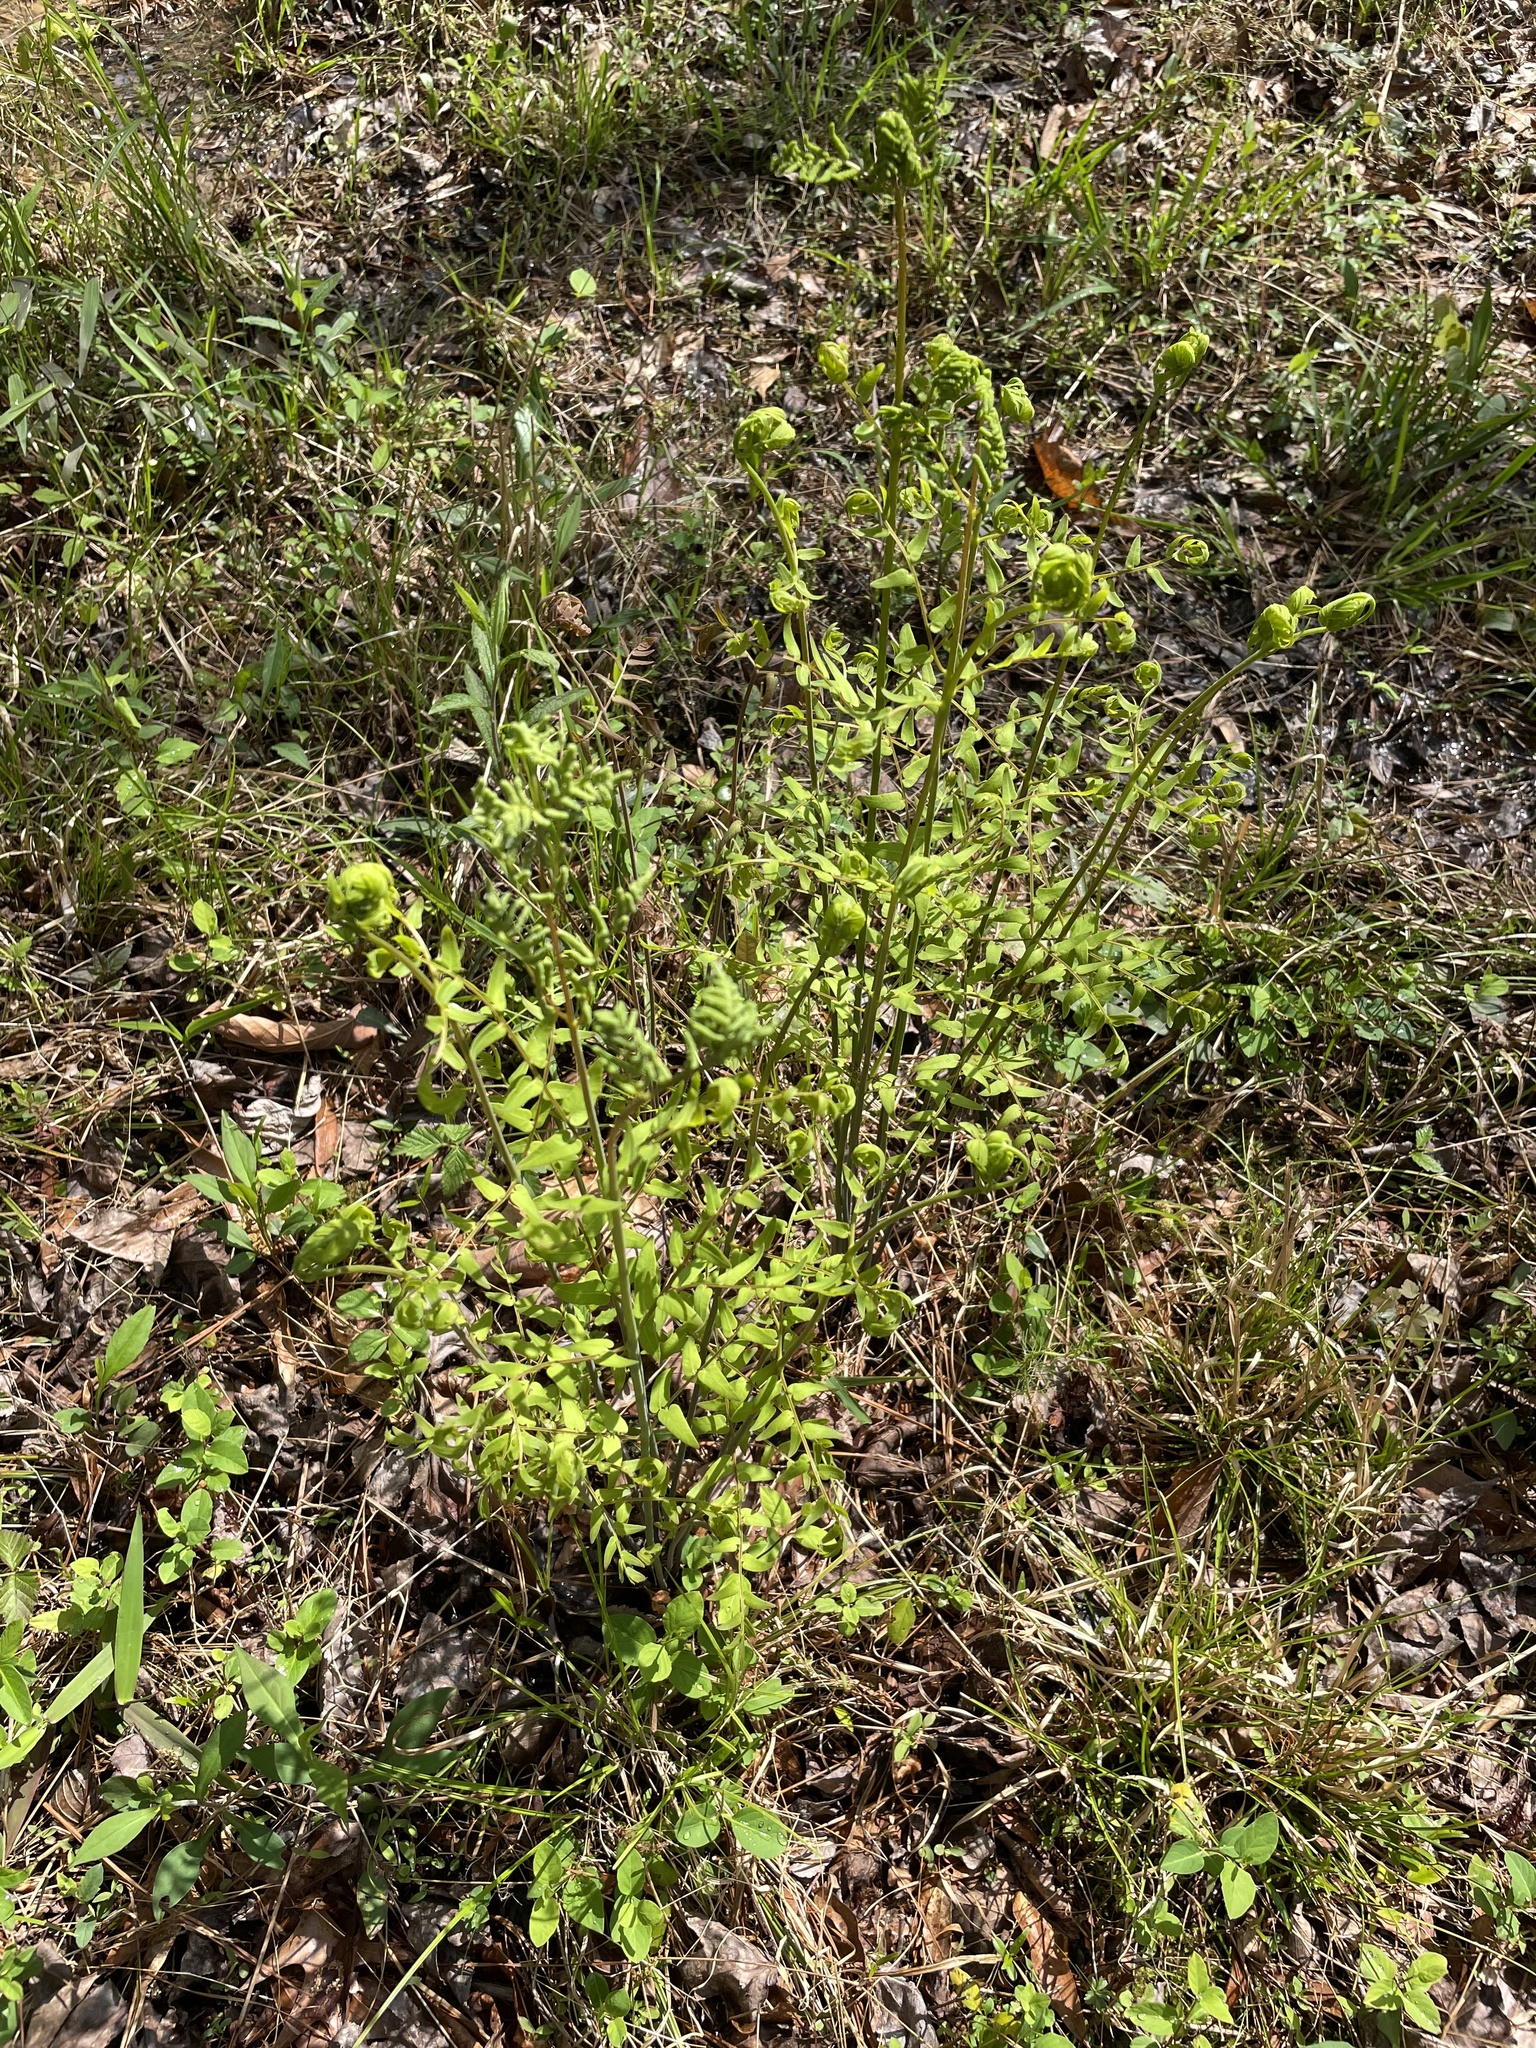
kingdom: Plantae
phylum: Tracheophyta
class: Polypodiopsida
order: Osmundales
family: Osmundaceae
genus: Osmunda
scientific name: Osmunda spectabilis
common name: American royal fern
